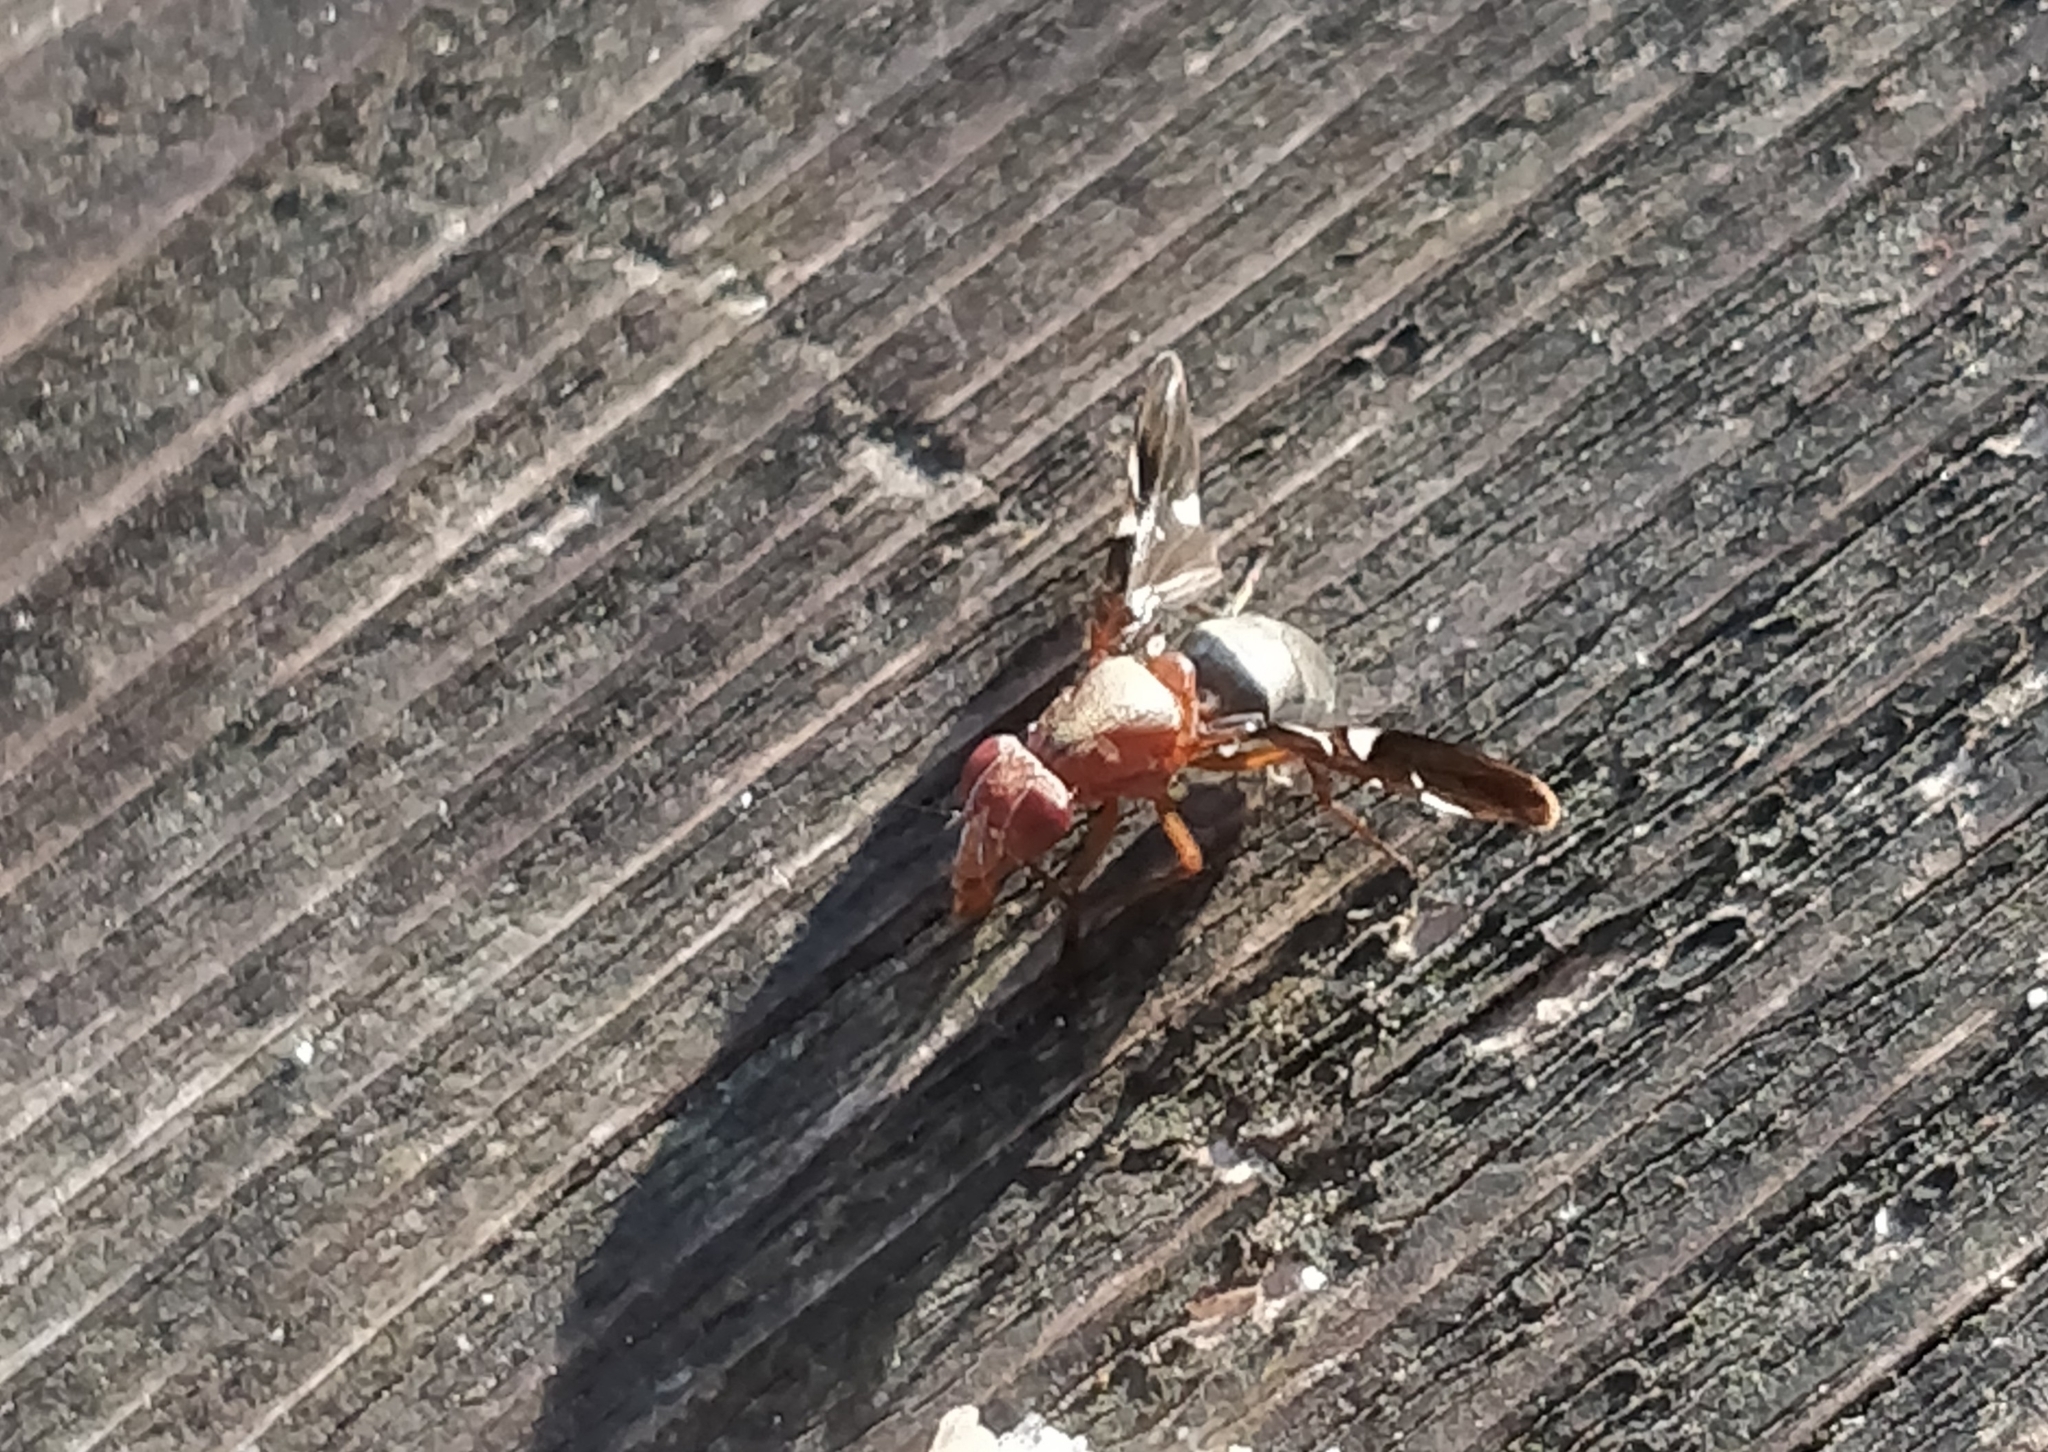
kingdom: Animalia
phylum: Arthropoda
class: Insecta
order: Diptera
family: Ulidiidae
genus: Delphinia
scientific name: Delphinia picta
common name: Common picture-winged fly
